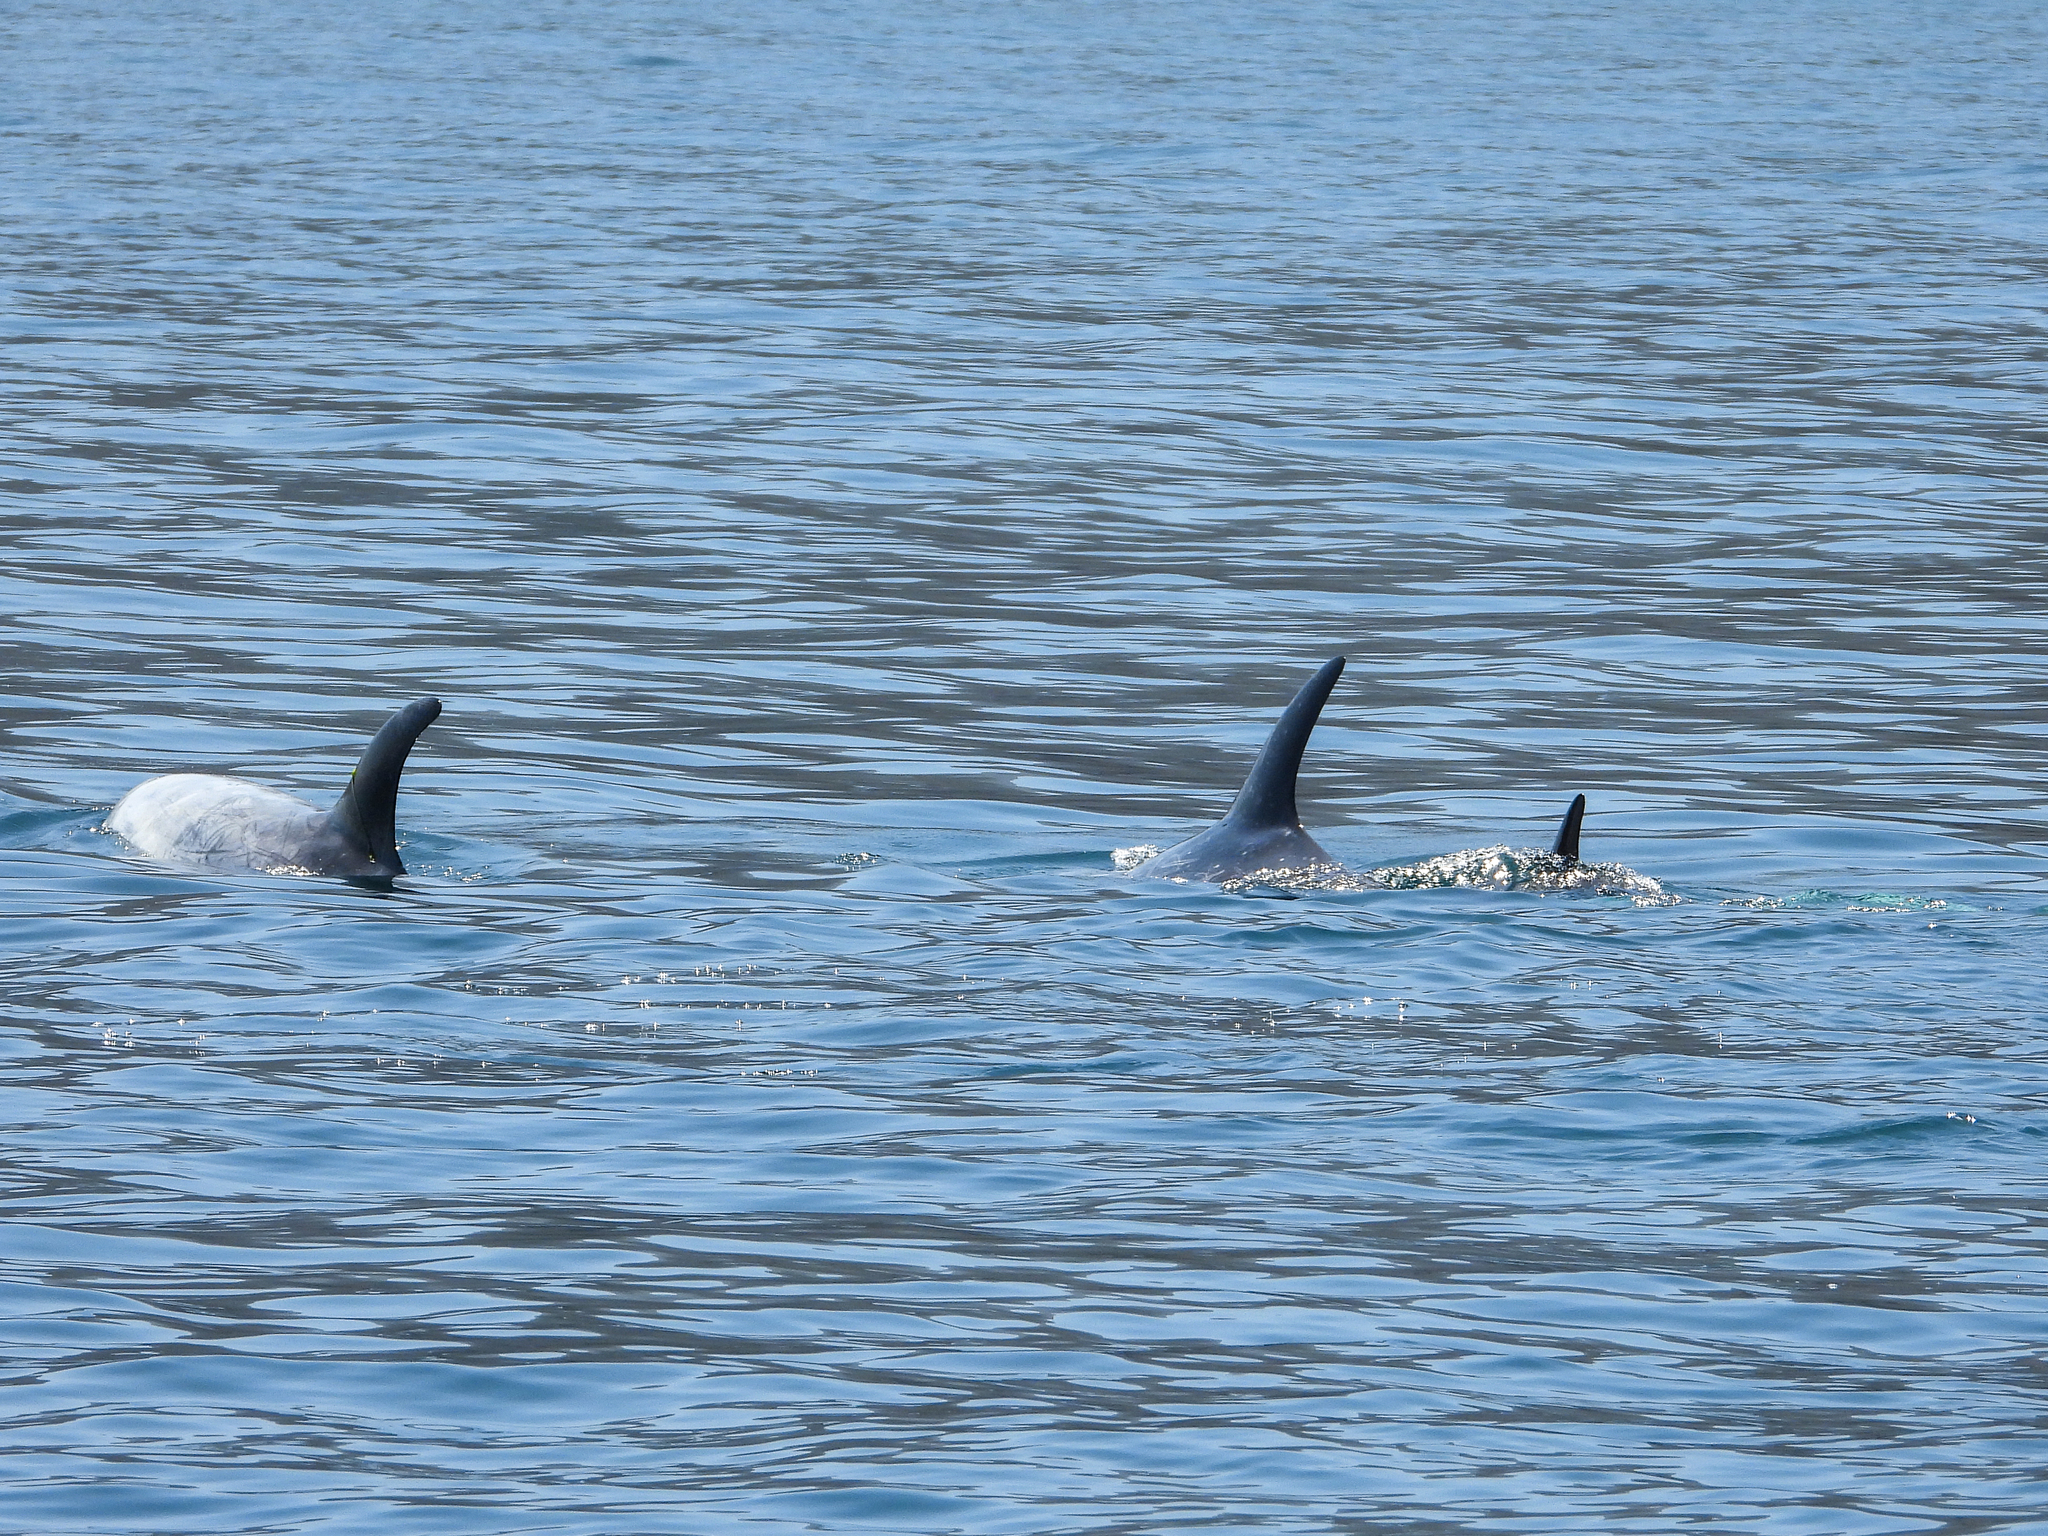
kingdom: Animalia
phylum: Chordata
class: Mammalia
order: Cetacea
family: Delphinidae
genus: Grampus
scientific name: Grampus griseus
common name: Risso's dolphin
